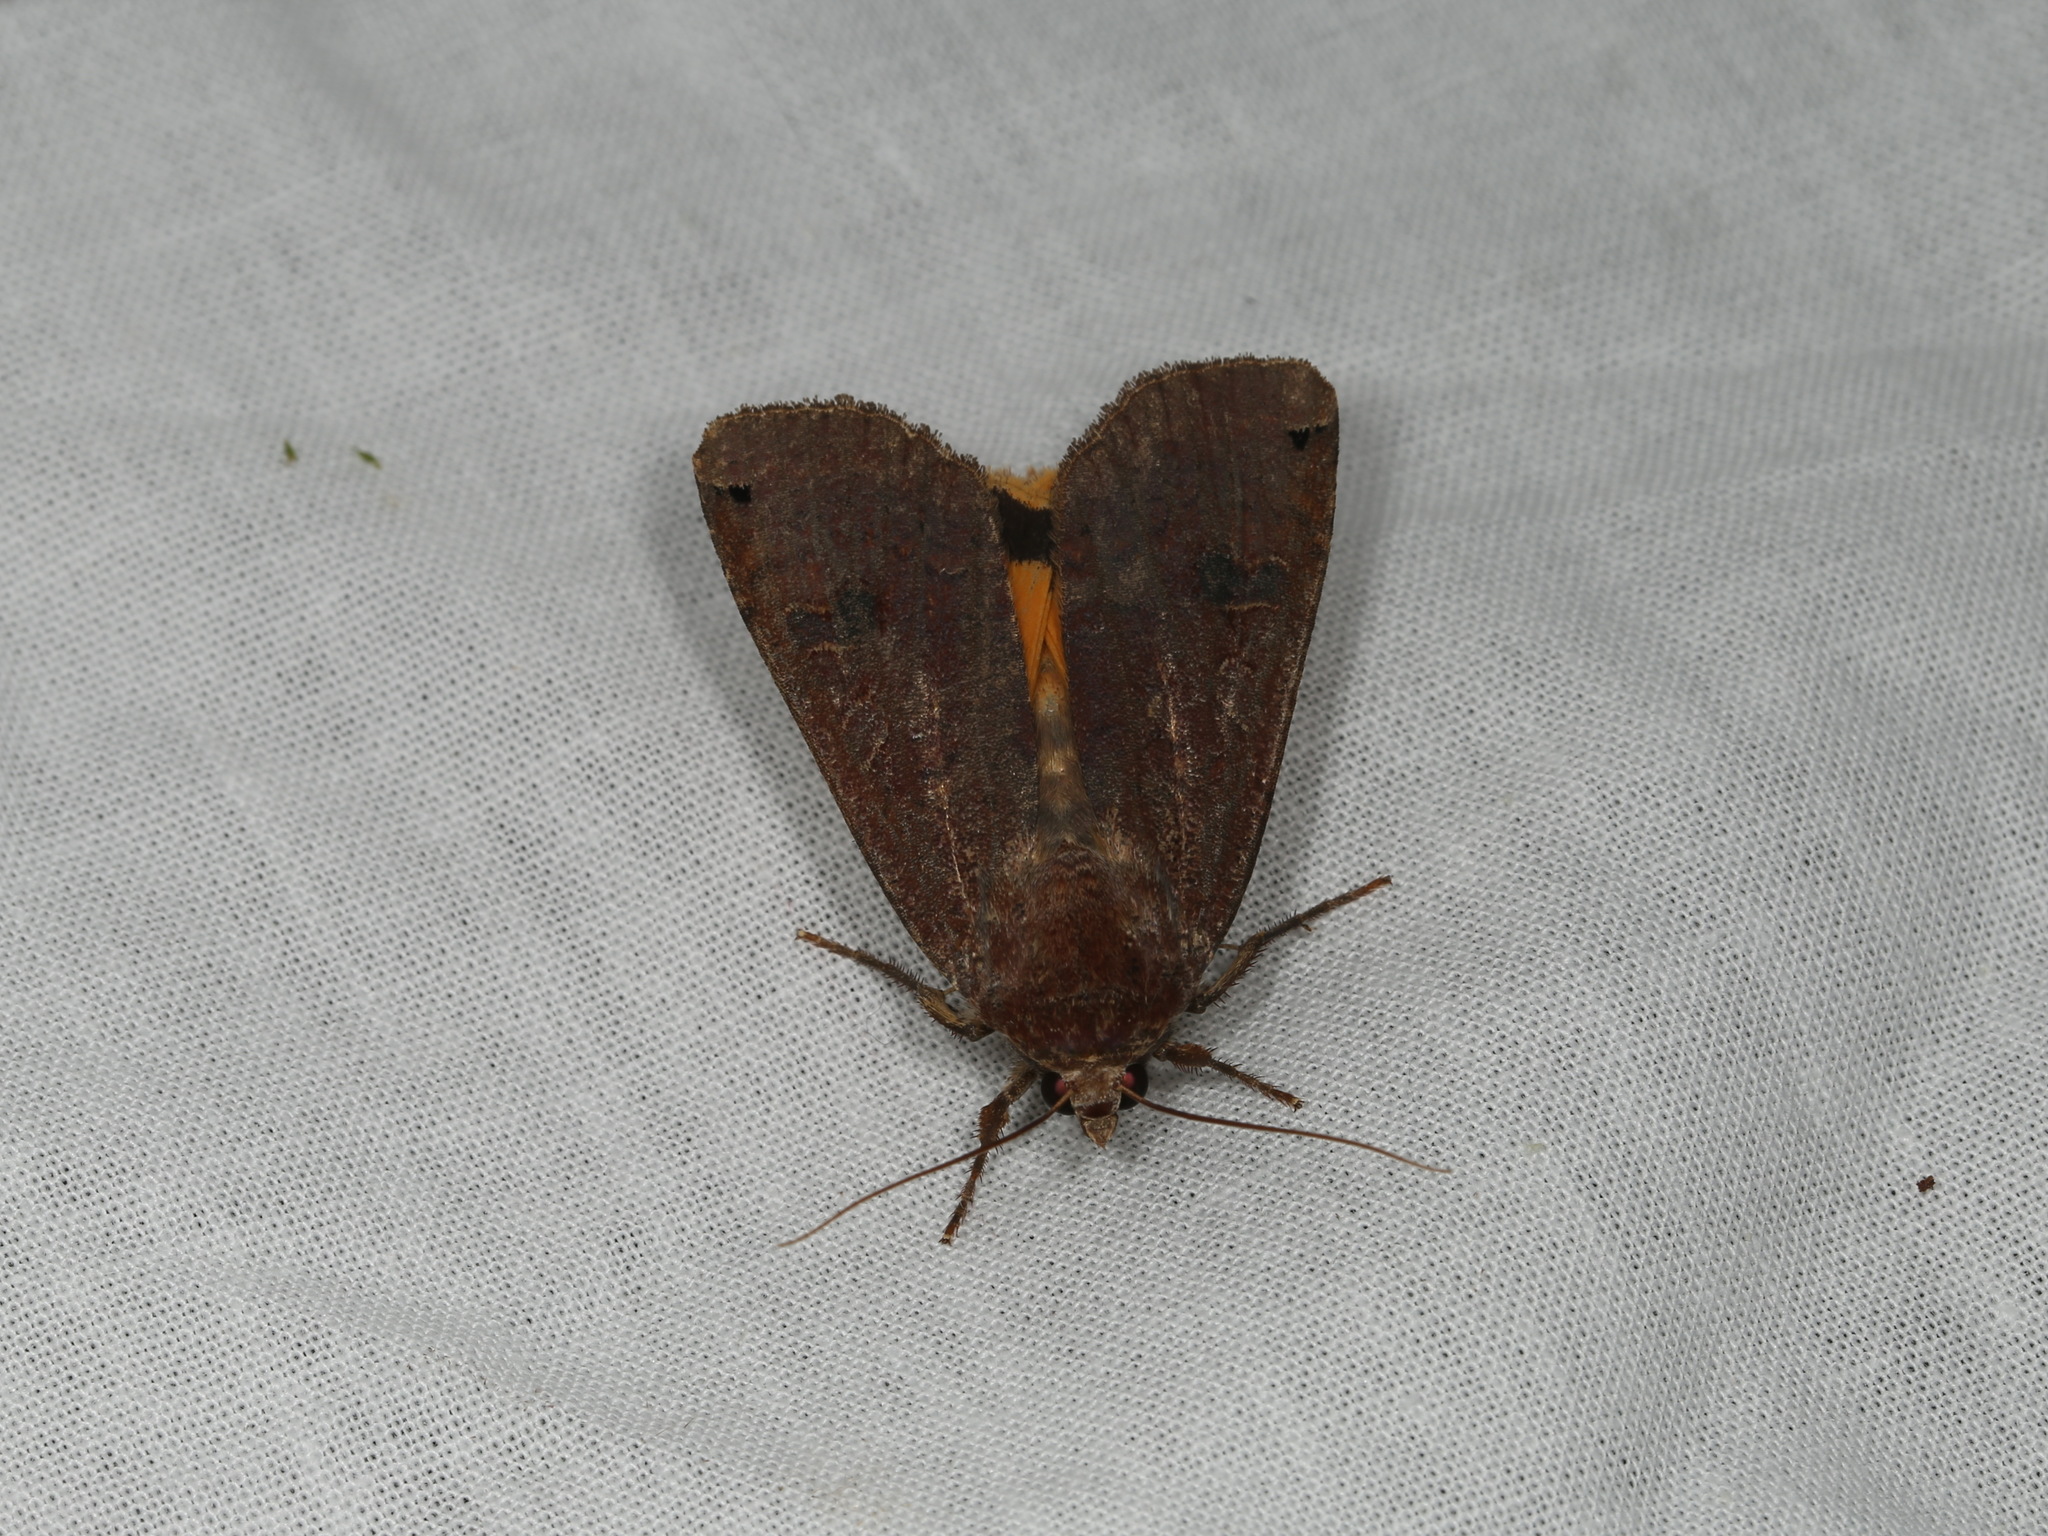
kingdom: Animalia
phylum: Arthropoda
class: Insecta
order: Lepidoptera
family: Noctuidae
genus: Noctua
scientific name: Noctua pronuba
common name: Large yellow underwing
